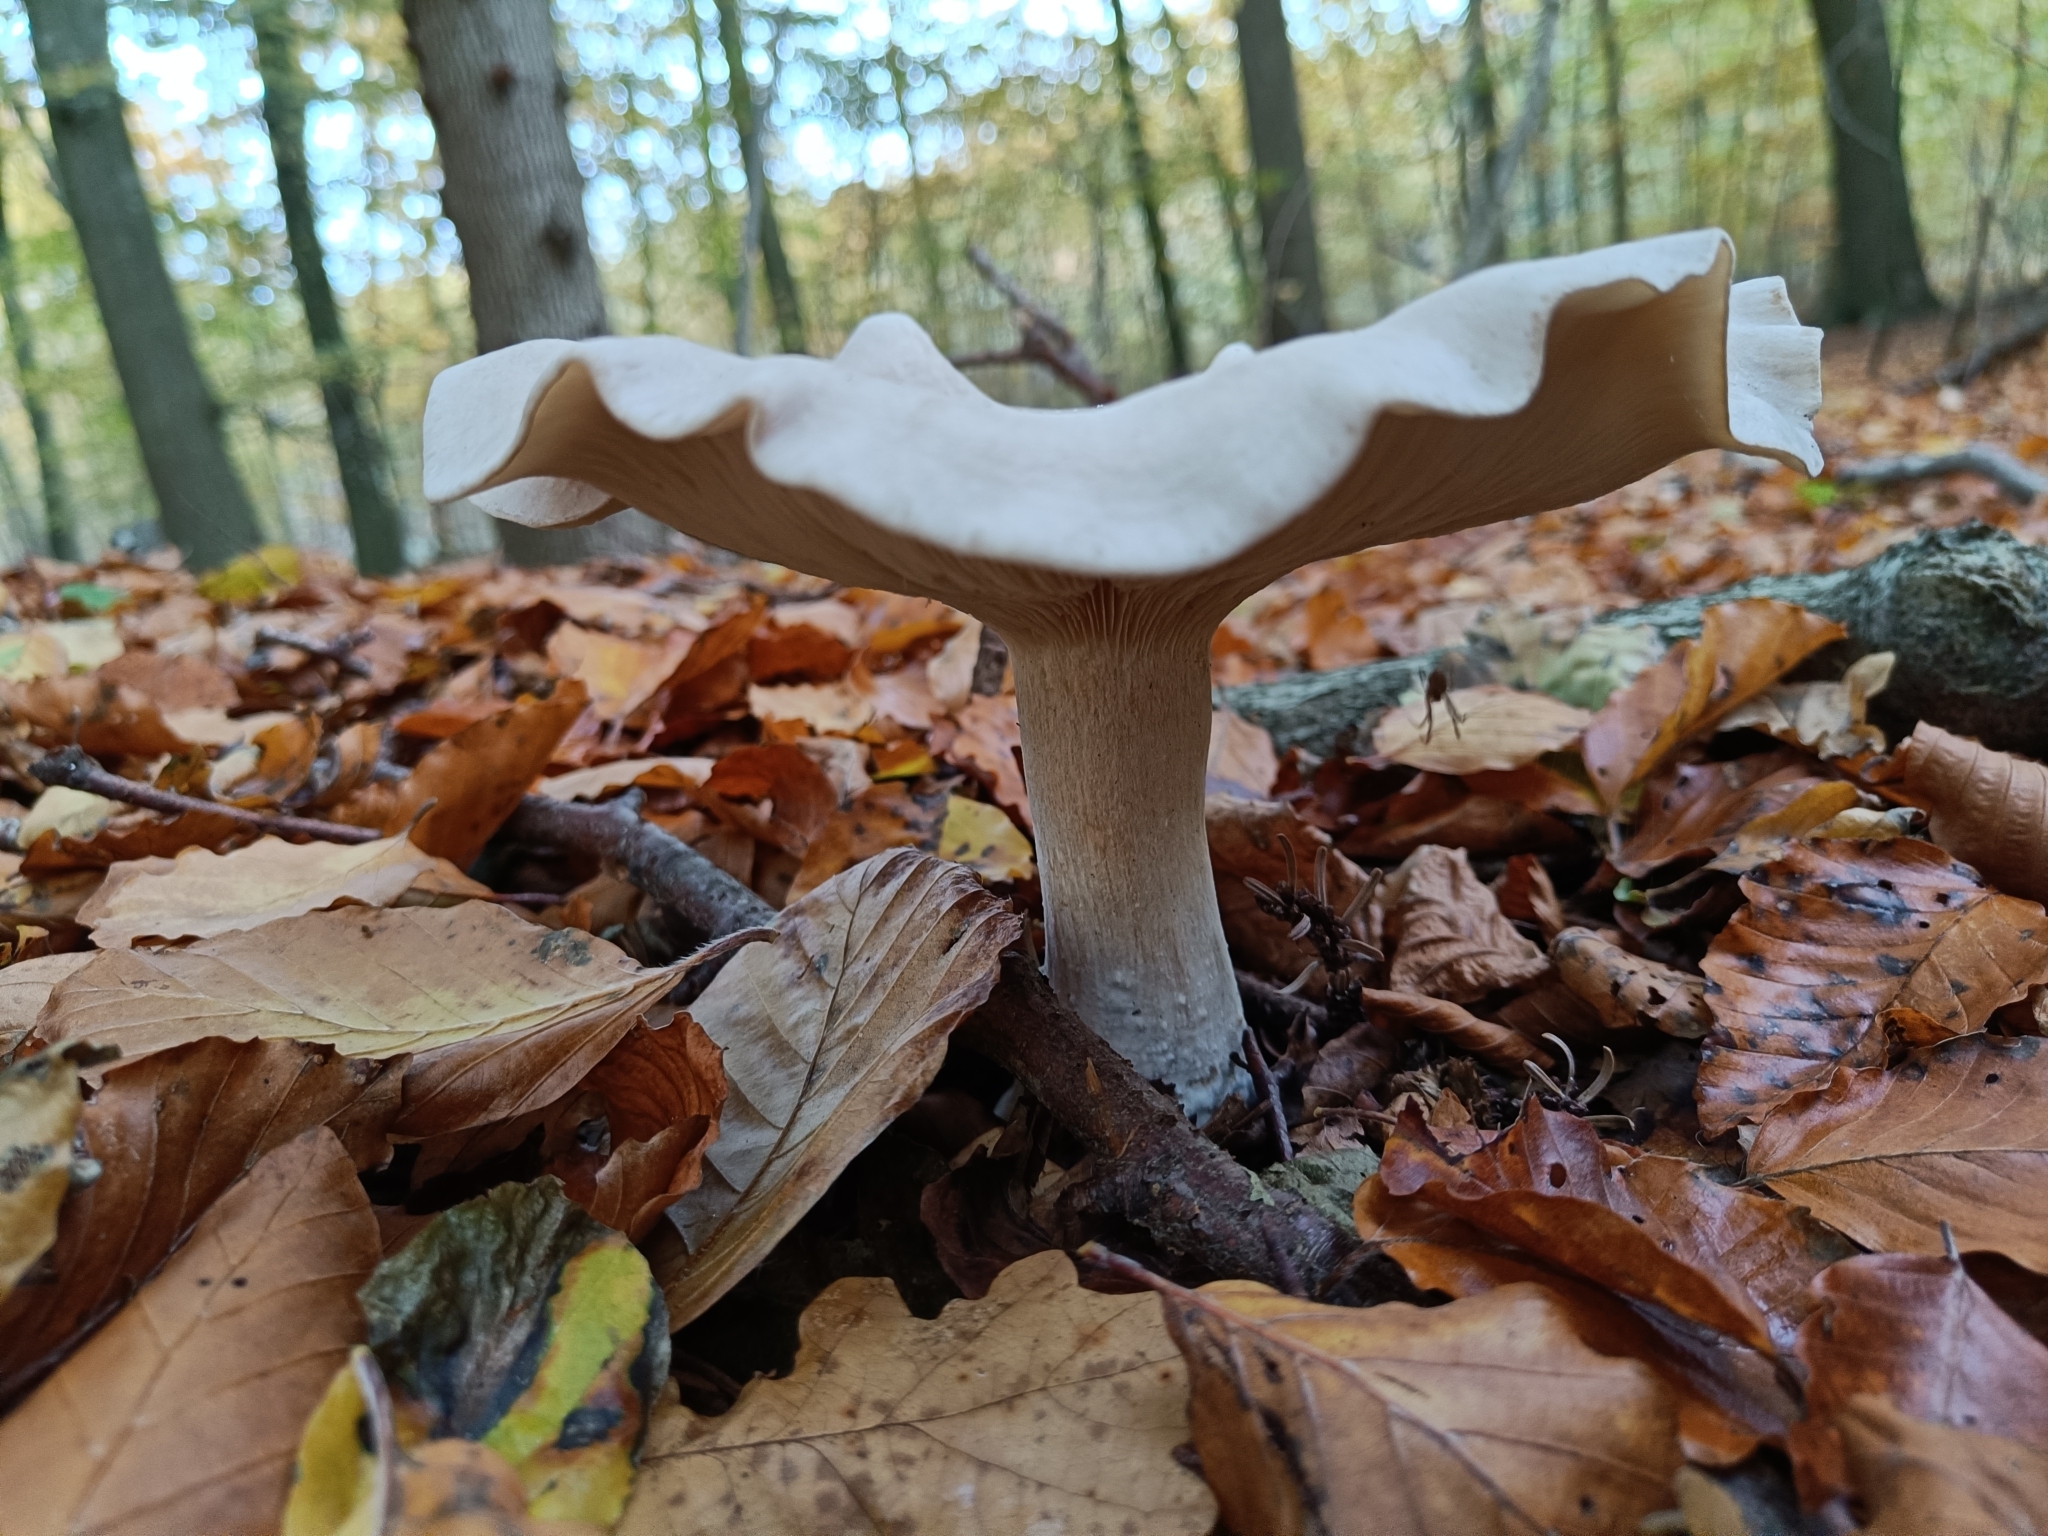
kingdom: Fungi
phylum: Basidiomycota
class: Agaricomycetes
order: Agaricales
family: Tricholomataceae
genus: Clitocybe
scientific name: Clitocybe nebularis
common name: Clouded agaric
